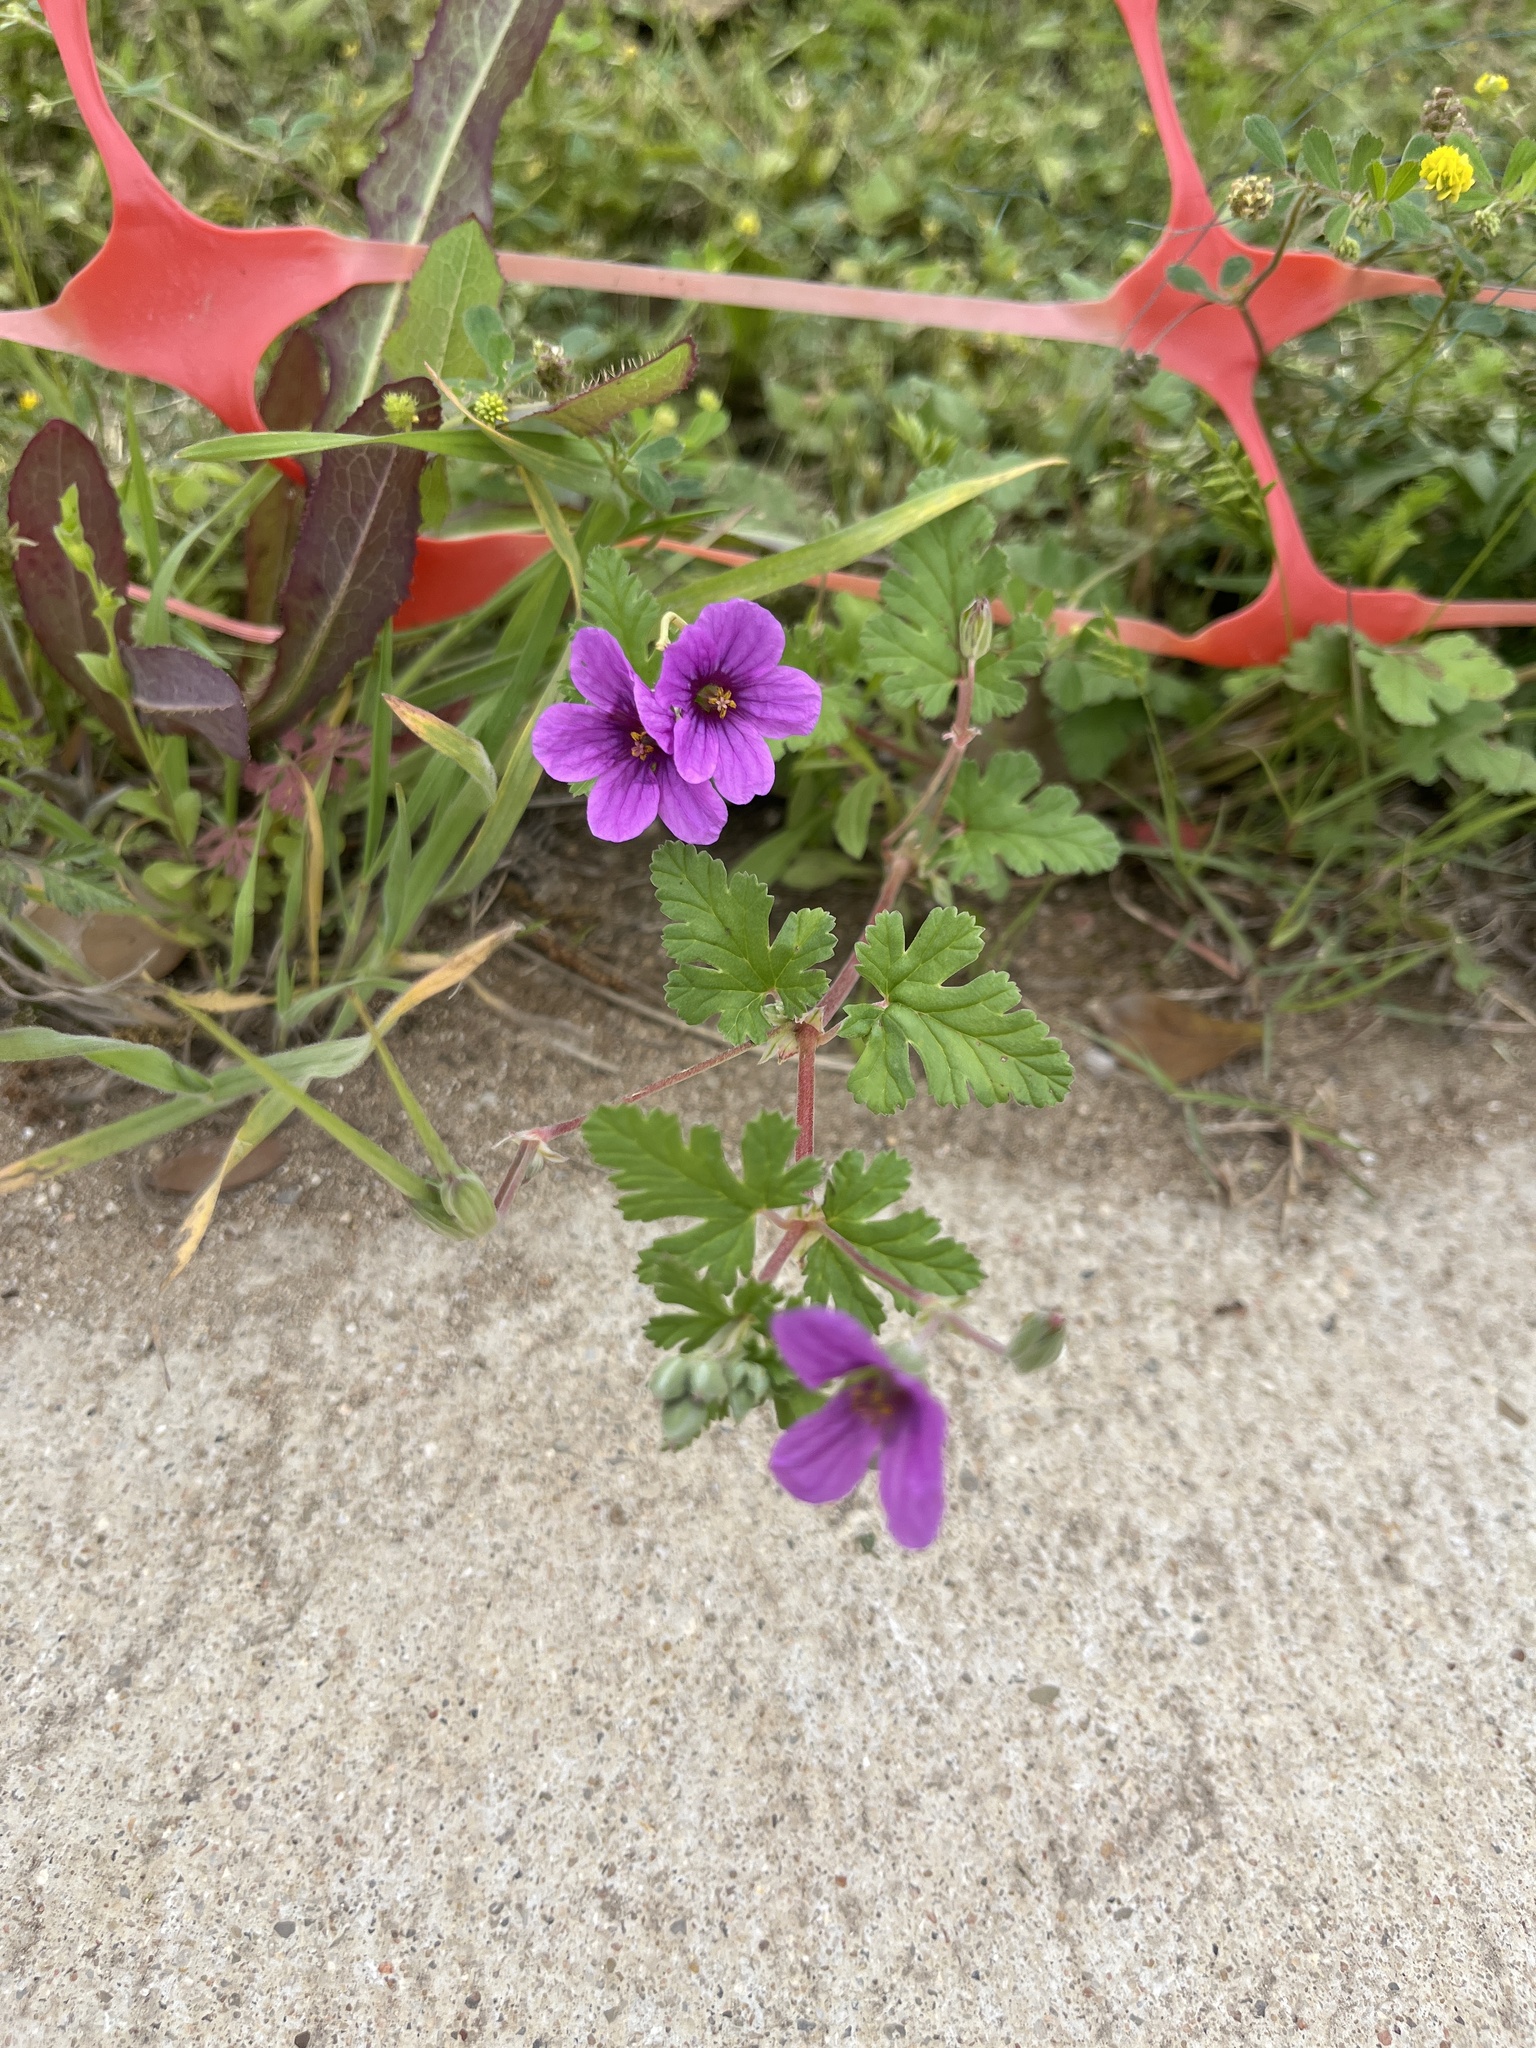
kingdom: Plantae
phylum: Tracheophyta
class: Magnoliopsida
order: Geraniales
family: Geraniaceae
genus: Erodium
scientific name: Erodium texanum
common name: Texas stork's-bill
